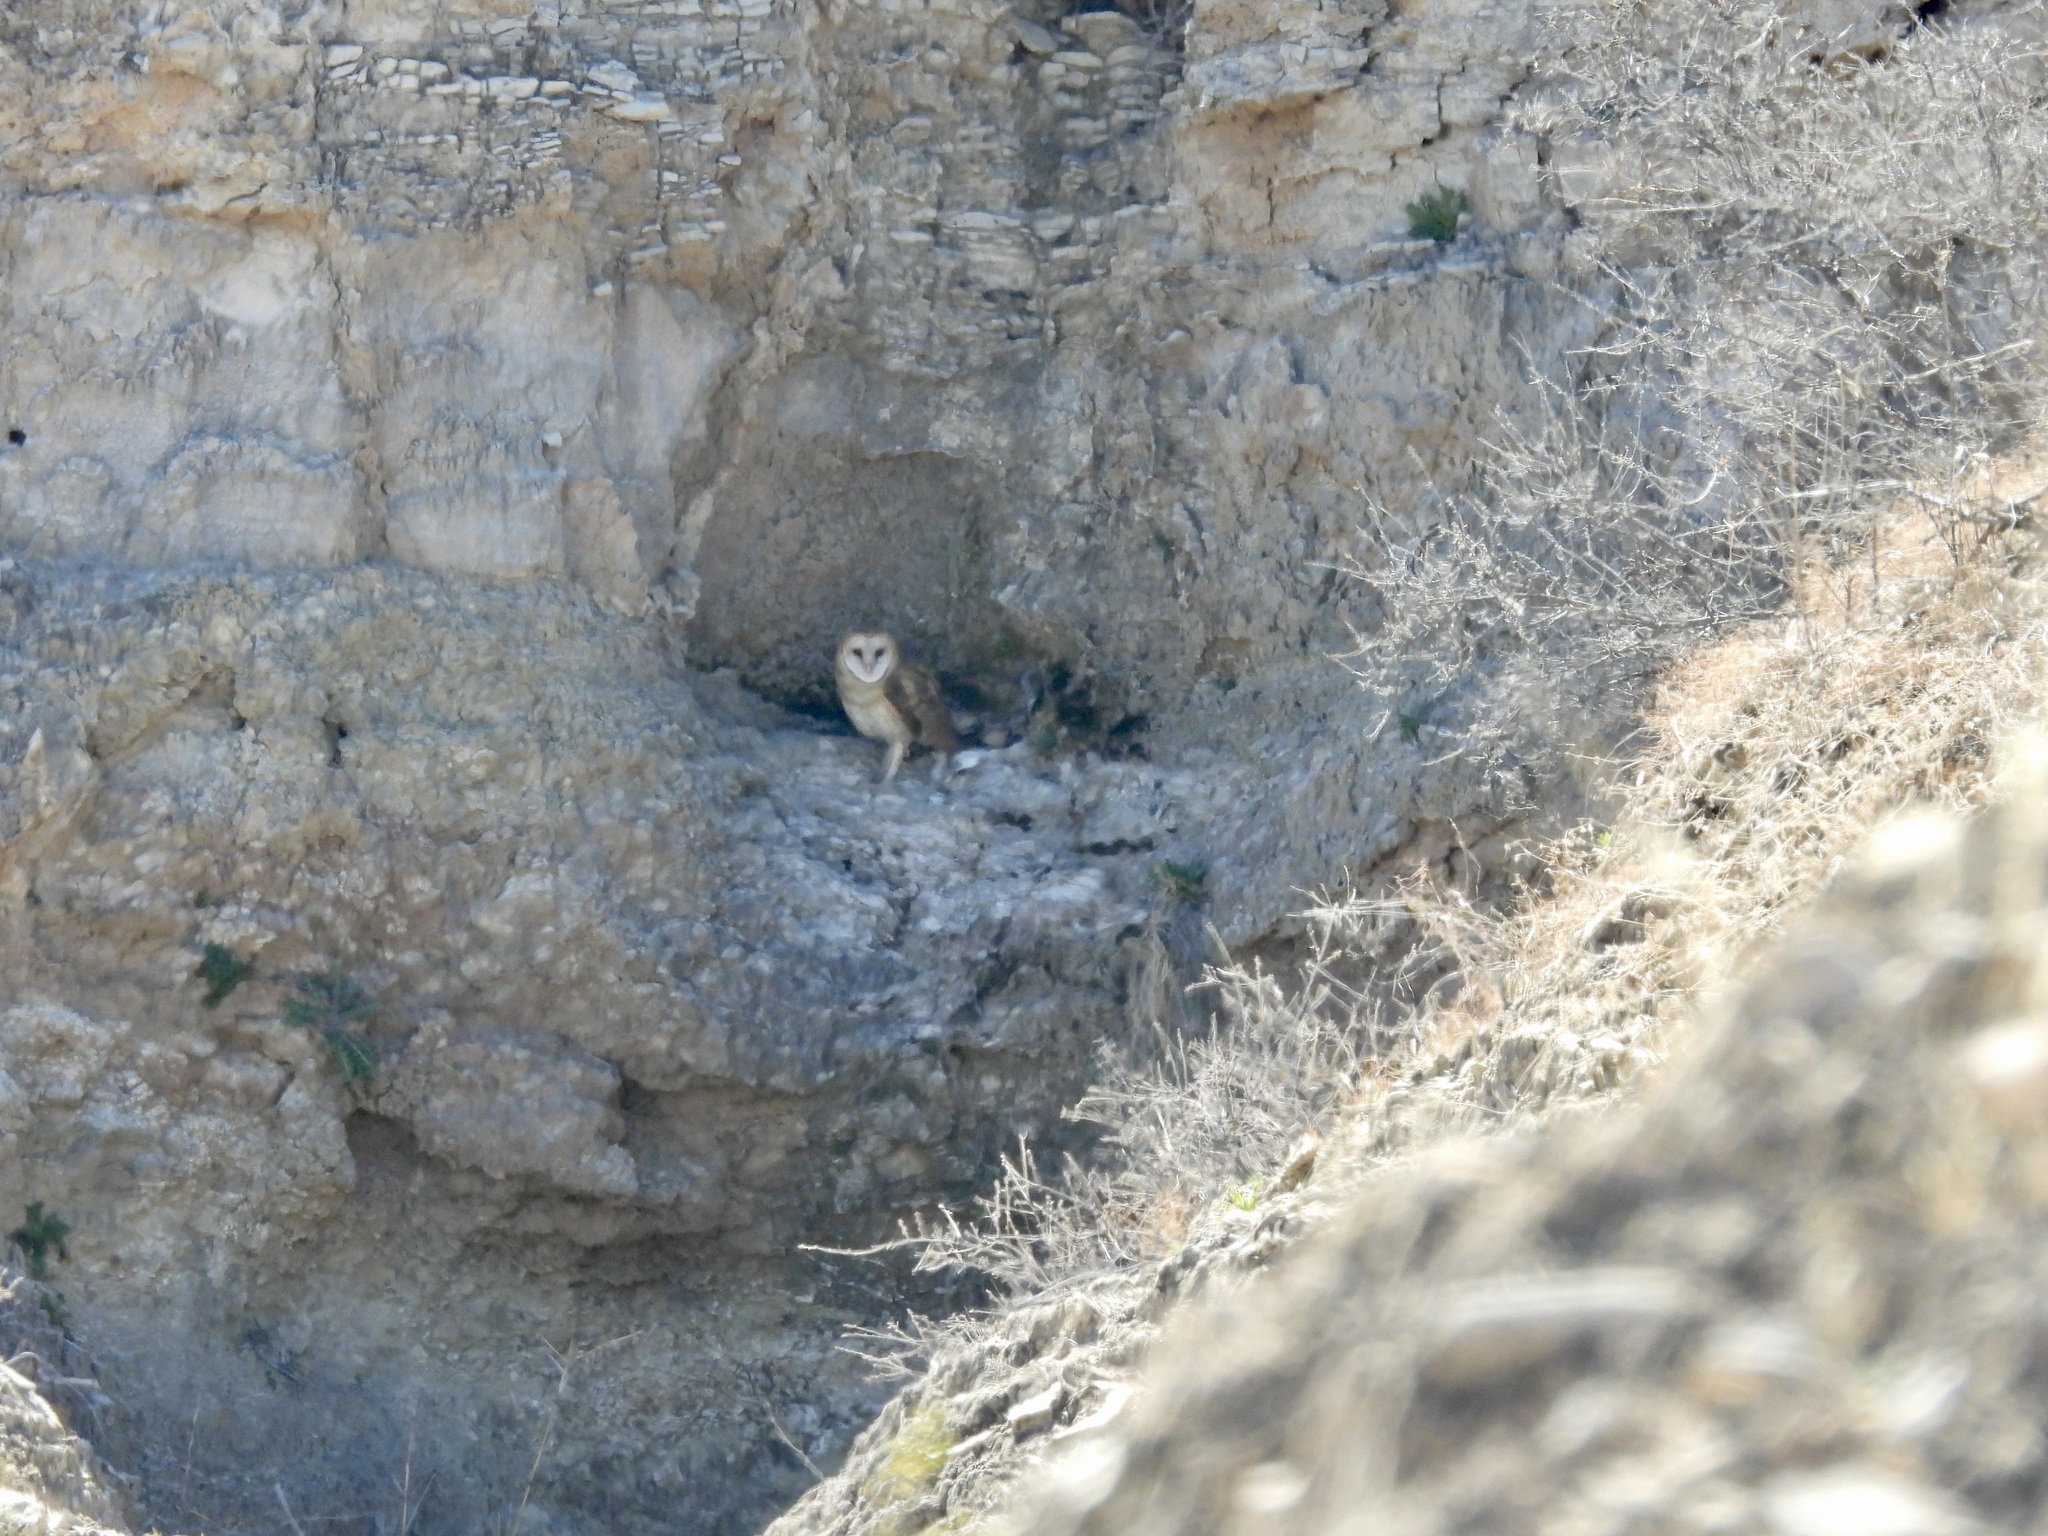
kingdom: Animalia
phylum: Chordata
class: Aves
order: Strigiformes
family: Tytonidae
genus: Tyto
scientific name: Tyto alba
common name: Barn owl
